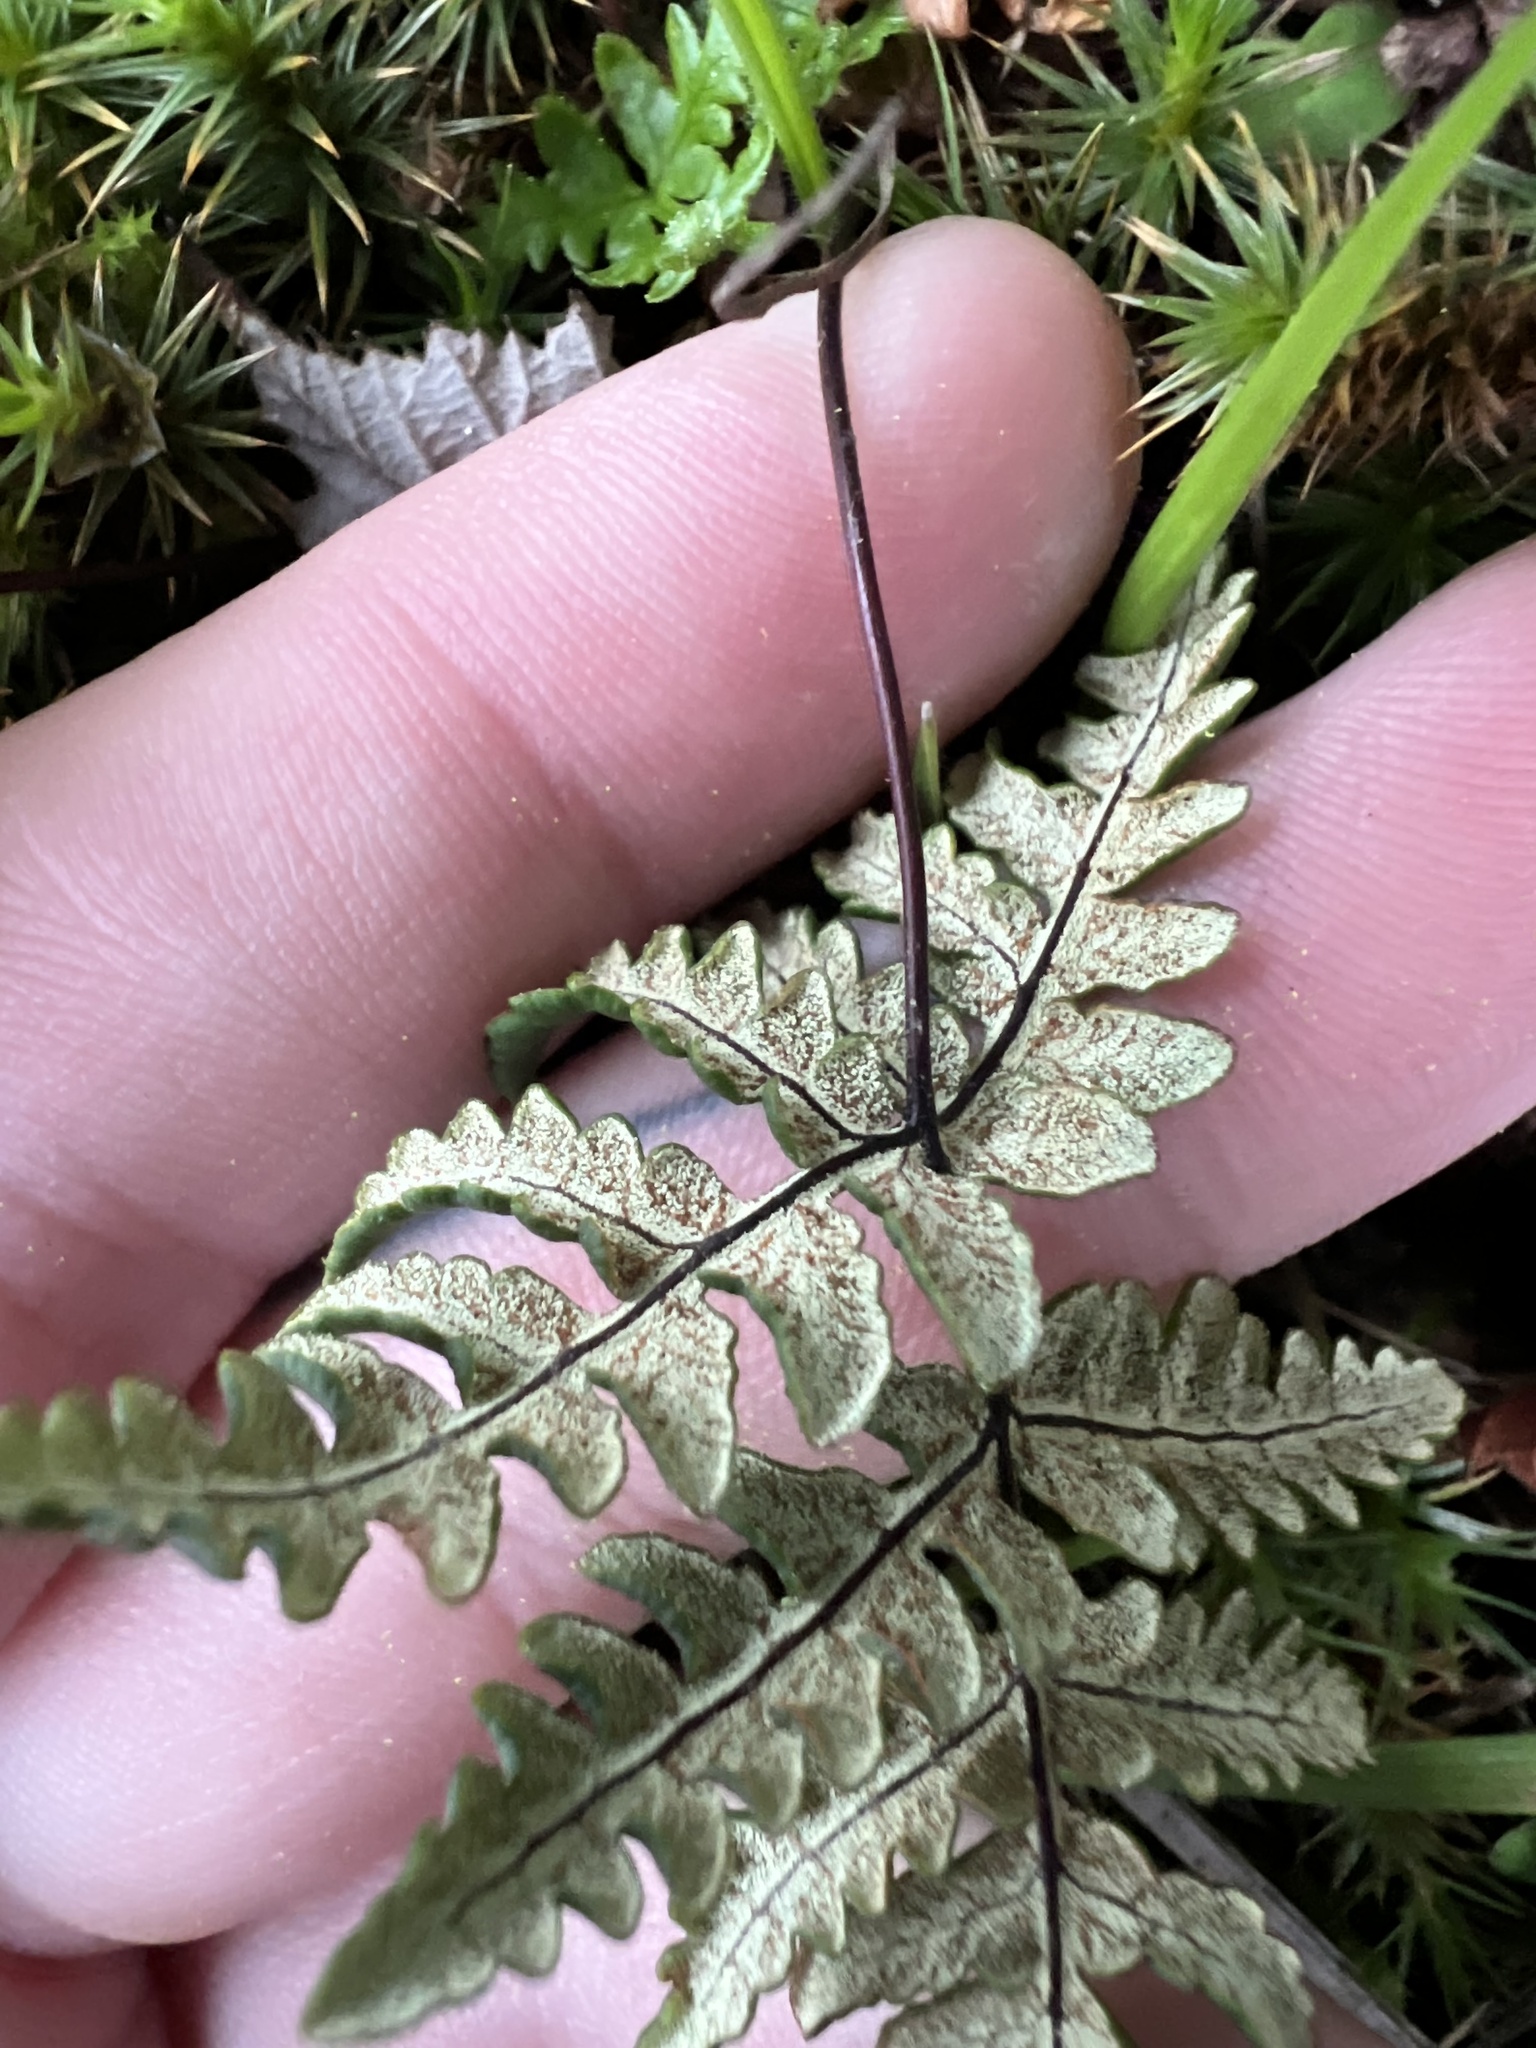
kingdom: Plantae
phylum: Tracheophyta
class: Polypodiopsida
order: Polypodiales
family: Pteridaceae
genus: Pentagramma
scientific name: Pentagramma triangularis
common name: Gold fern
